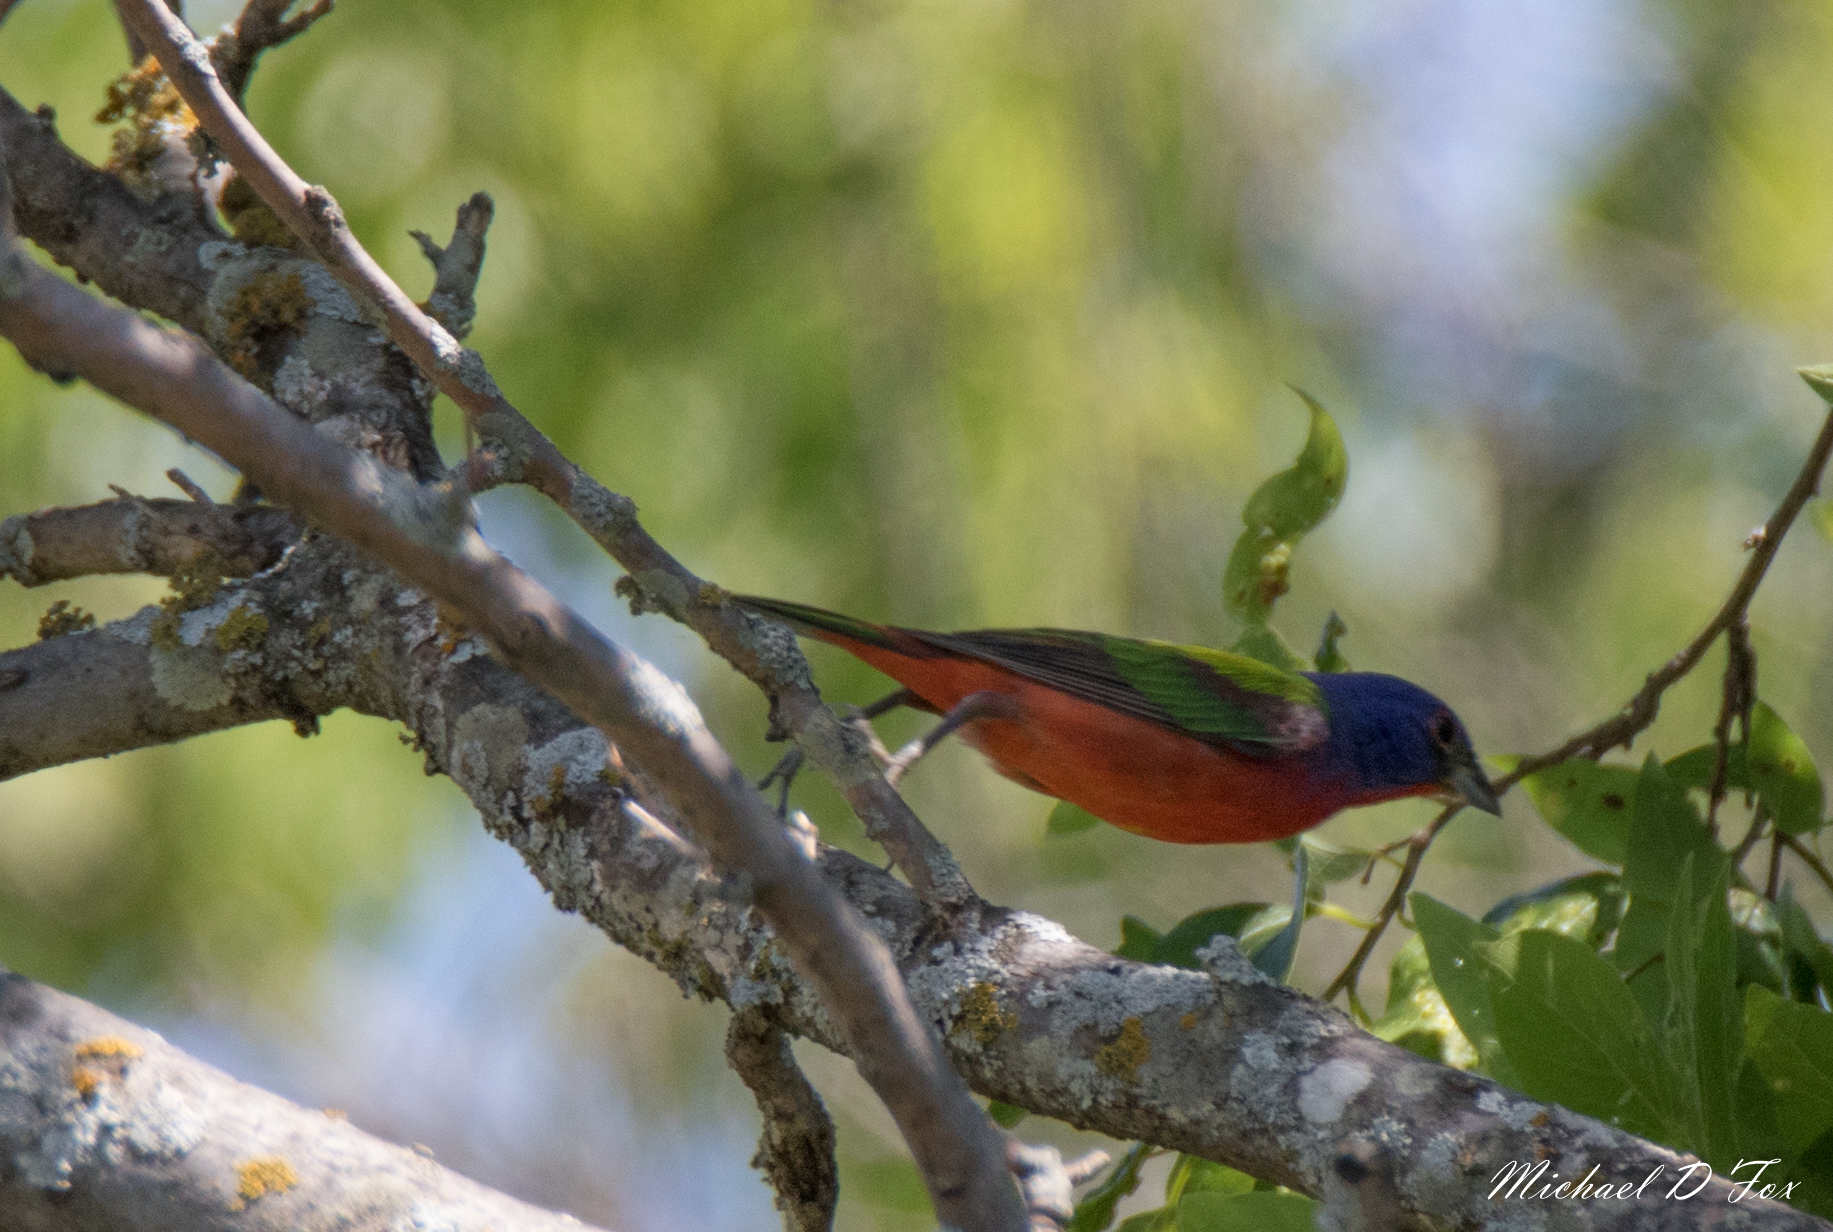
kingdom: Animalia
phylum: Chordata
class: Aves
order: Passeriformes
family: Cardinalidae
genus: Passerina
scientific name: Passerina ciris
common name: Painted bunting
